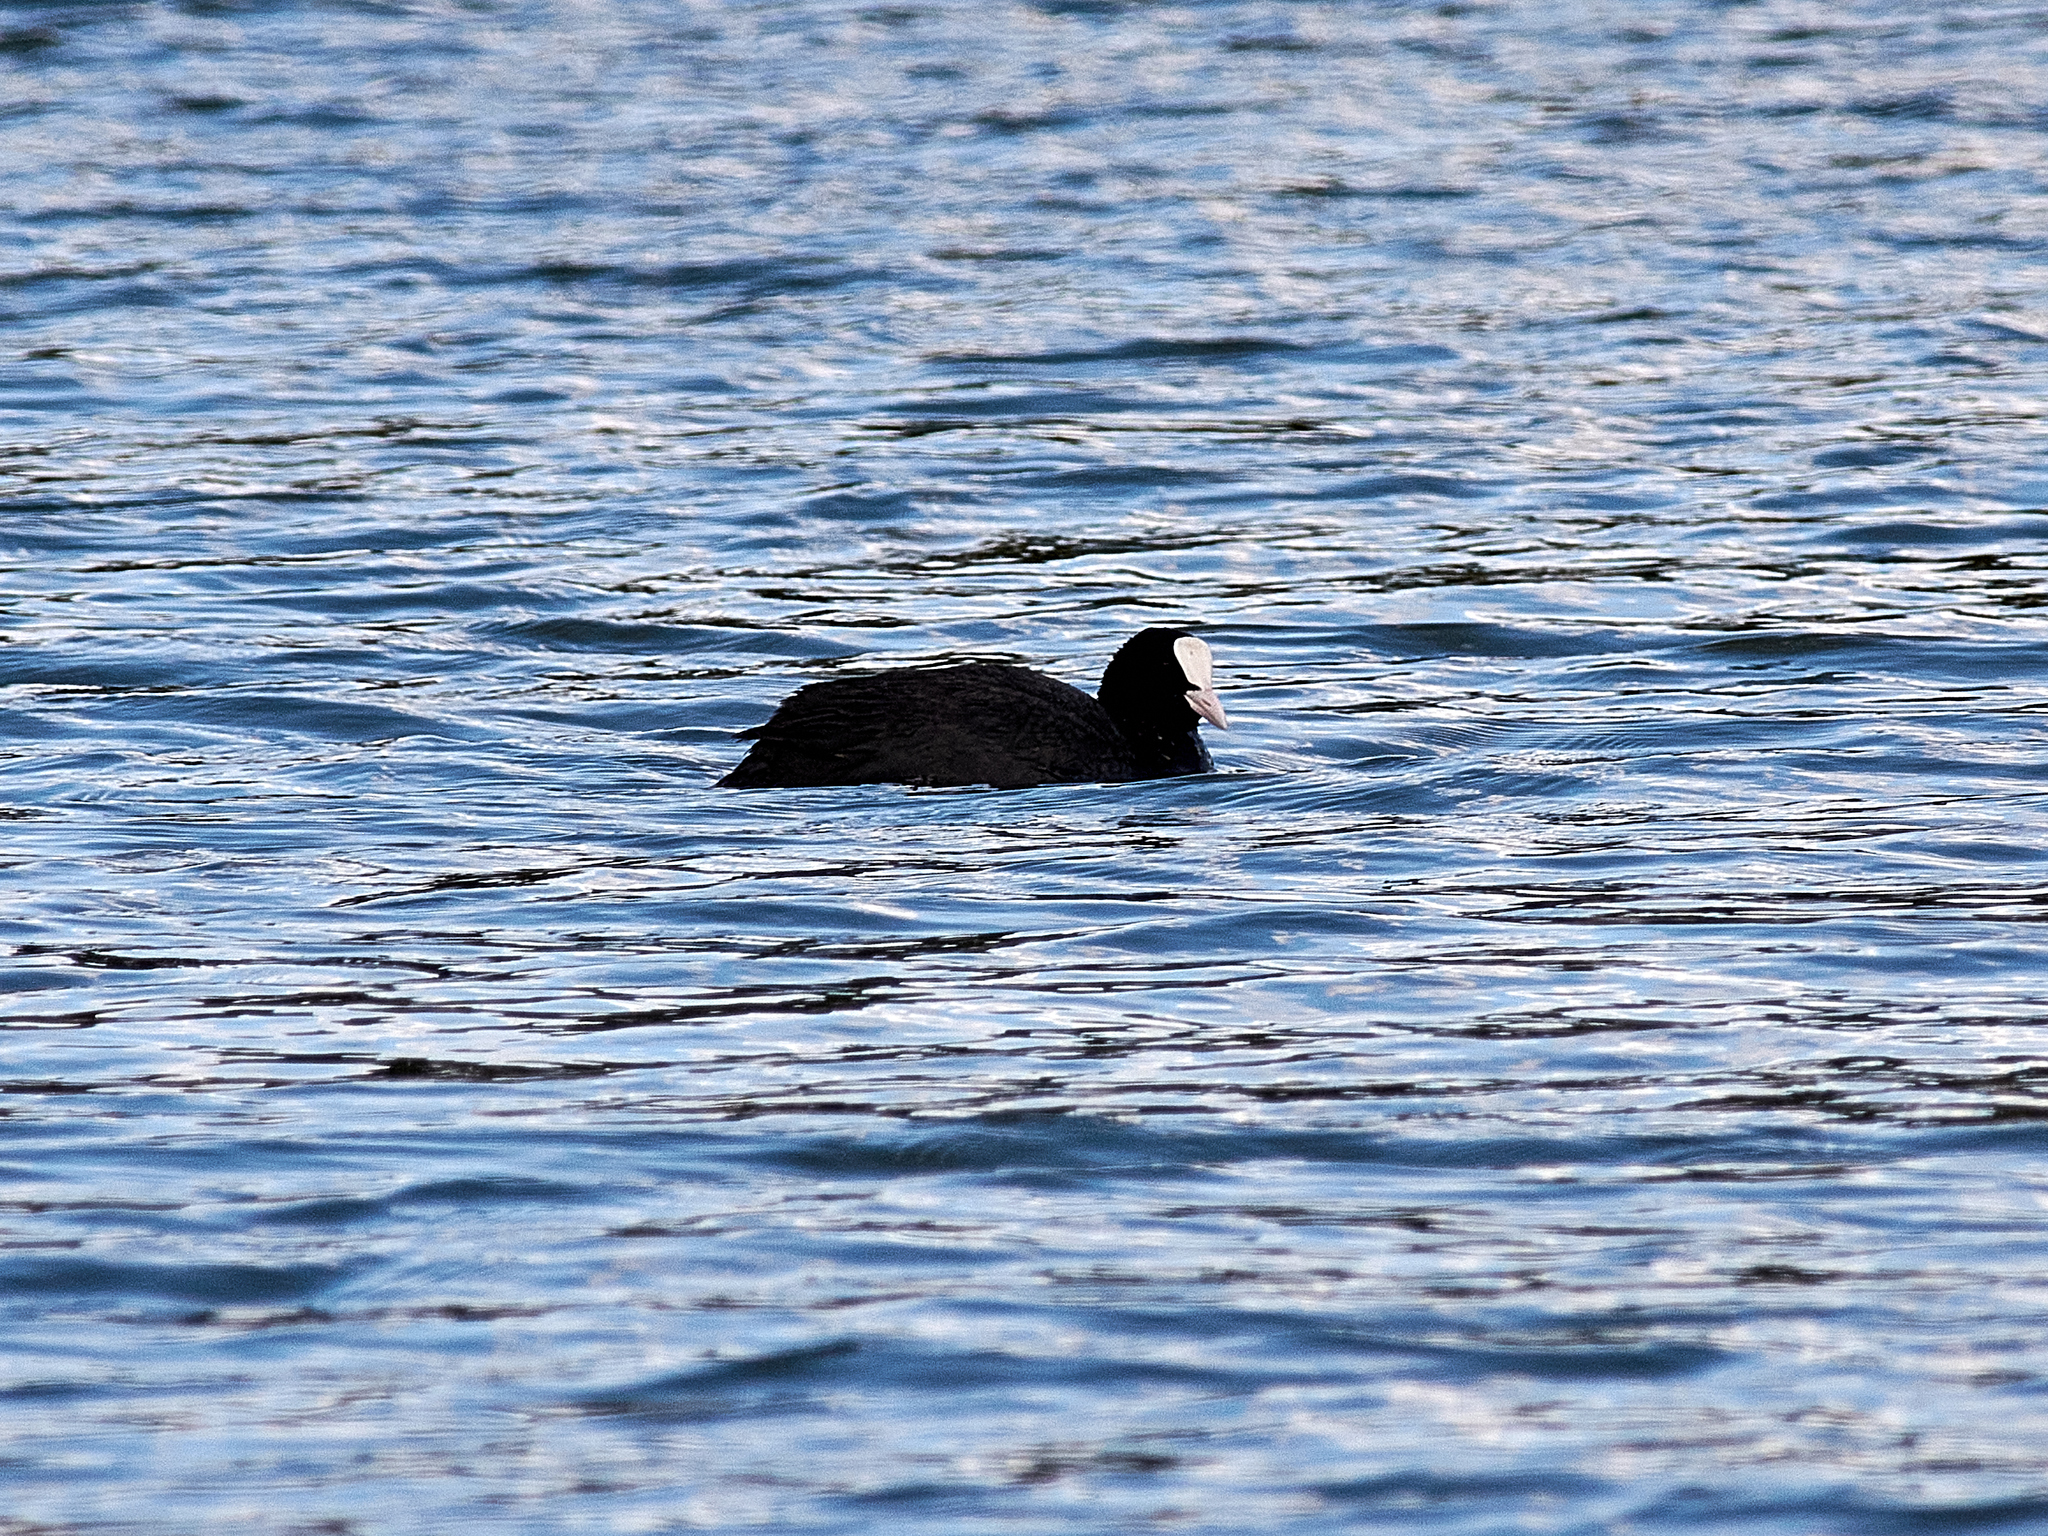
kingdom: Animalia
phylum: Chordata
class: Aves
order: Gruiformes
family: Rallidae
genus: Fulica
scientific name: Fulica atra
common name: Eurasian coot
